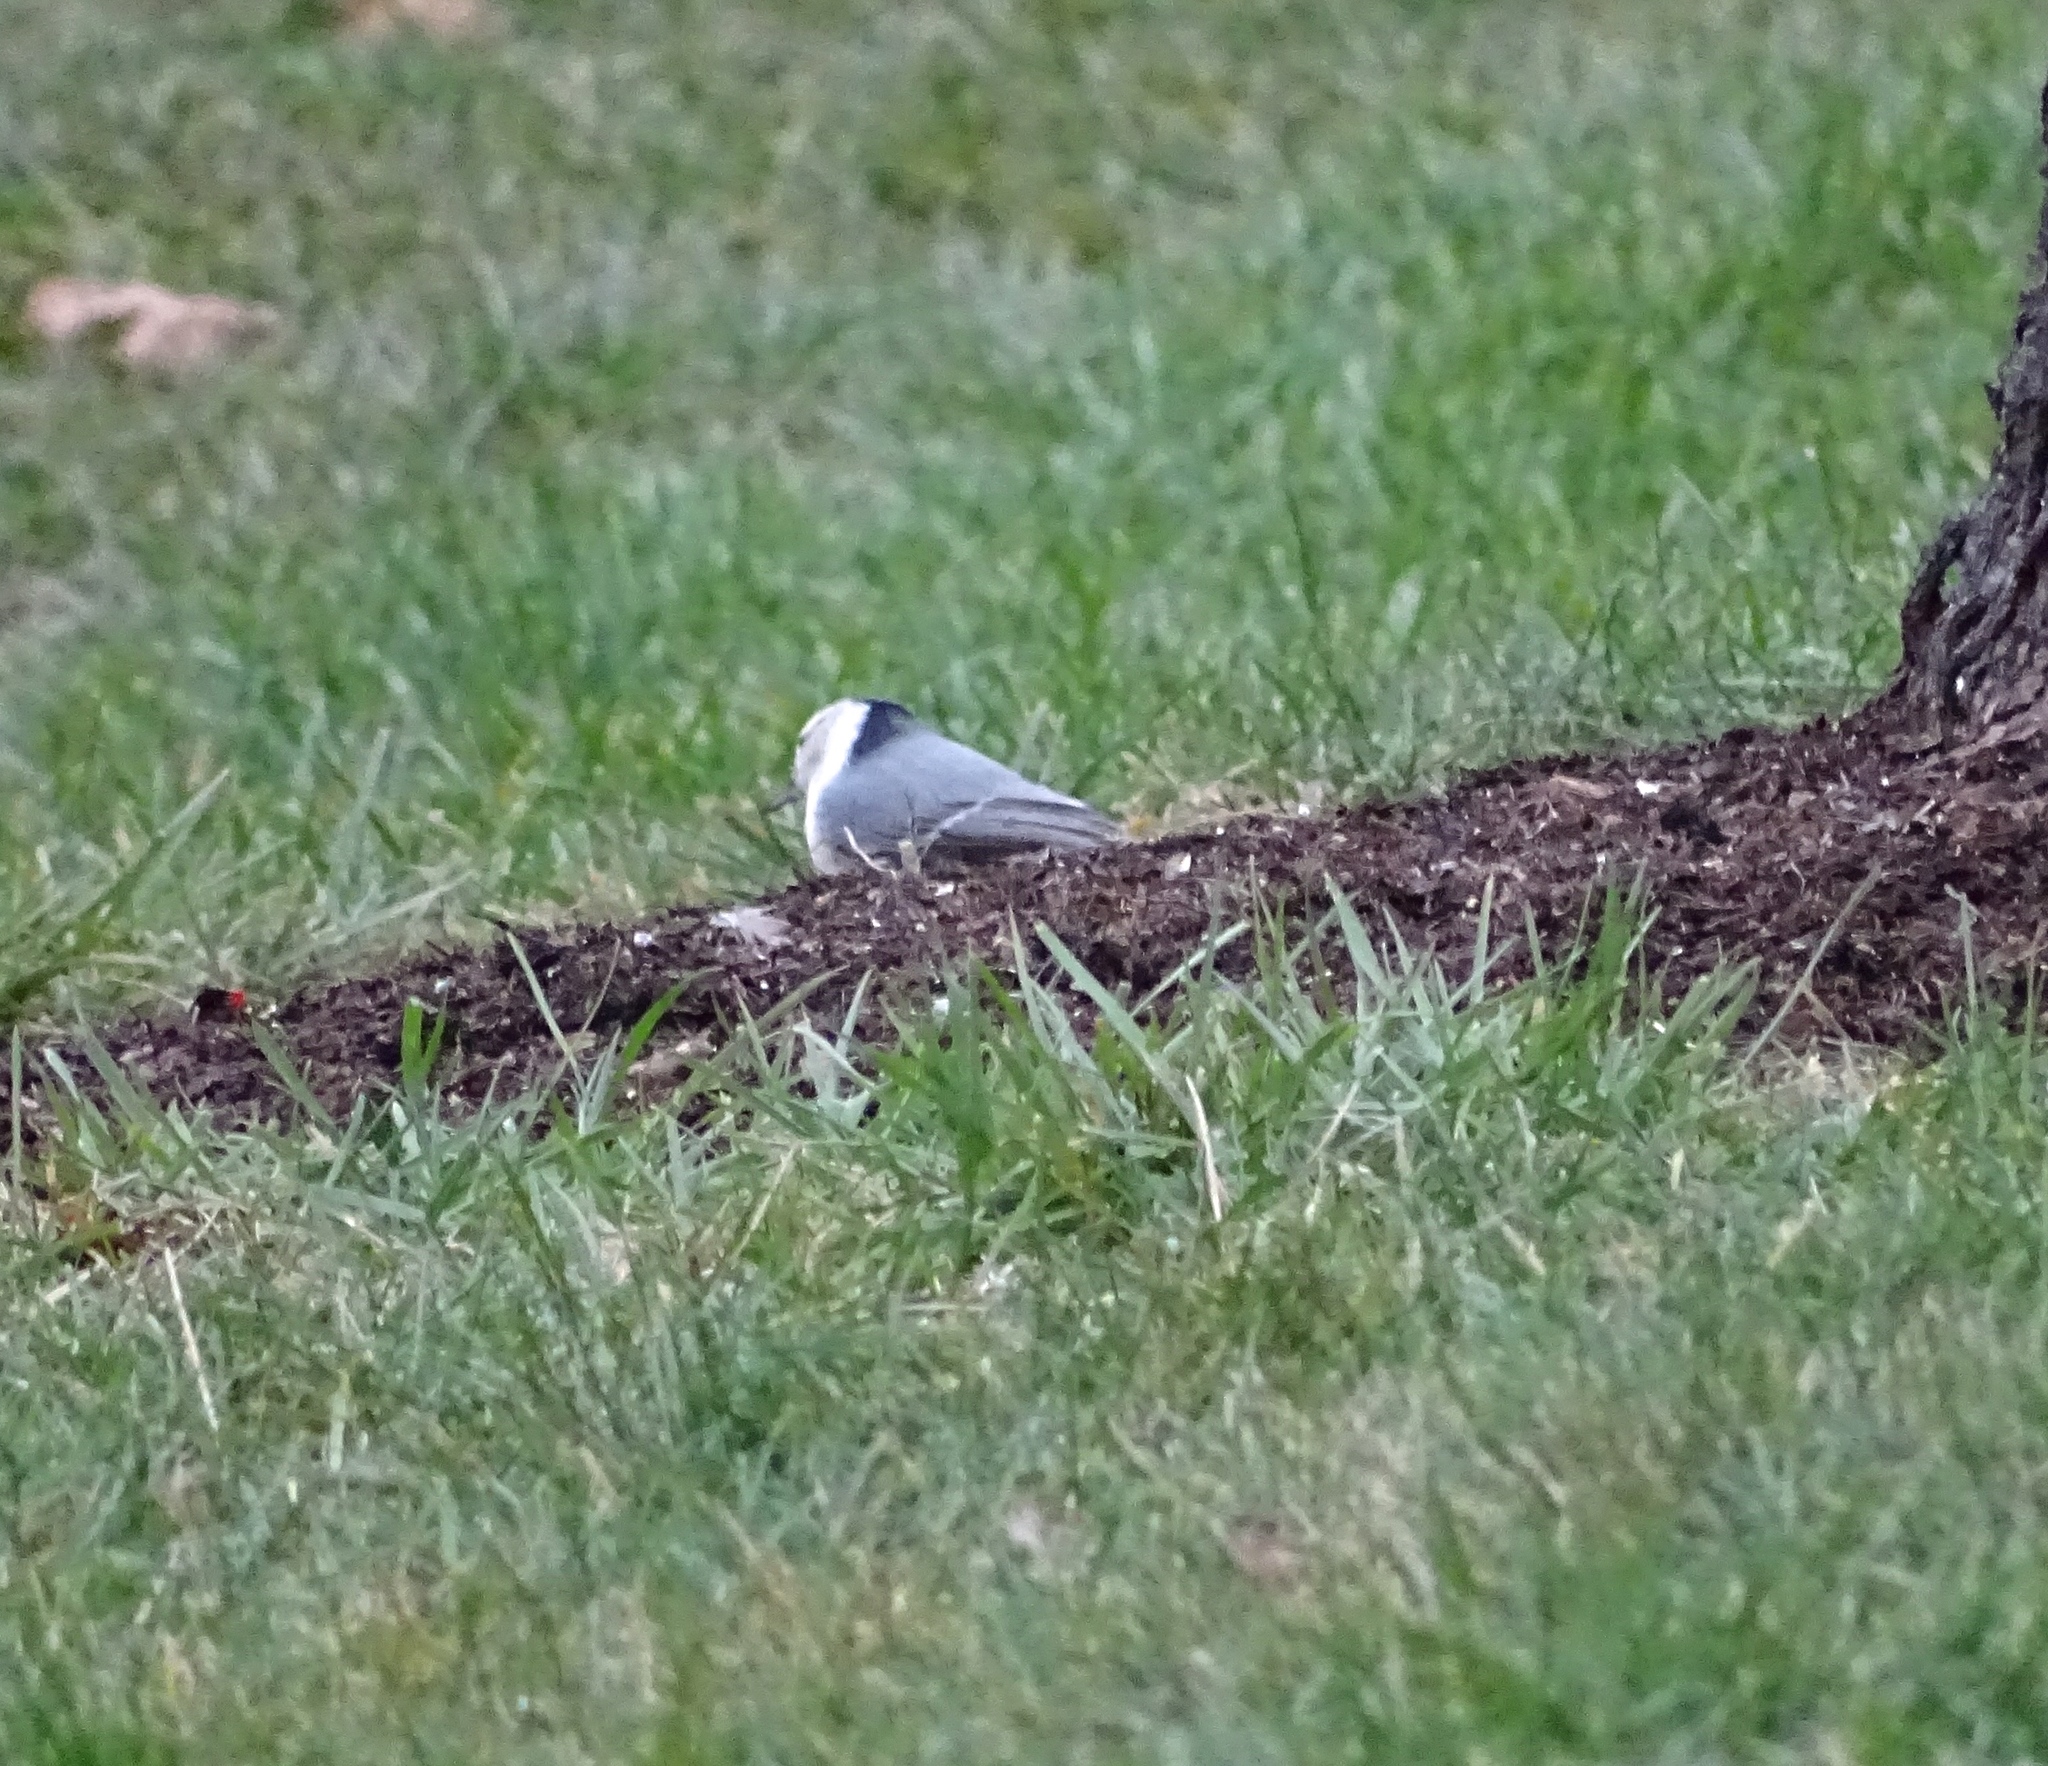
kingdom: Animalia
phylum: Chordata
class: Aves
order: Passeriformes
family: Sittidae
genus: Sitta
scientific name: Sitta carolinensis
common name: White-breasted nuthatch
